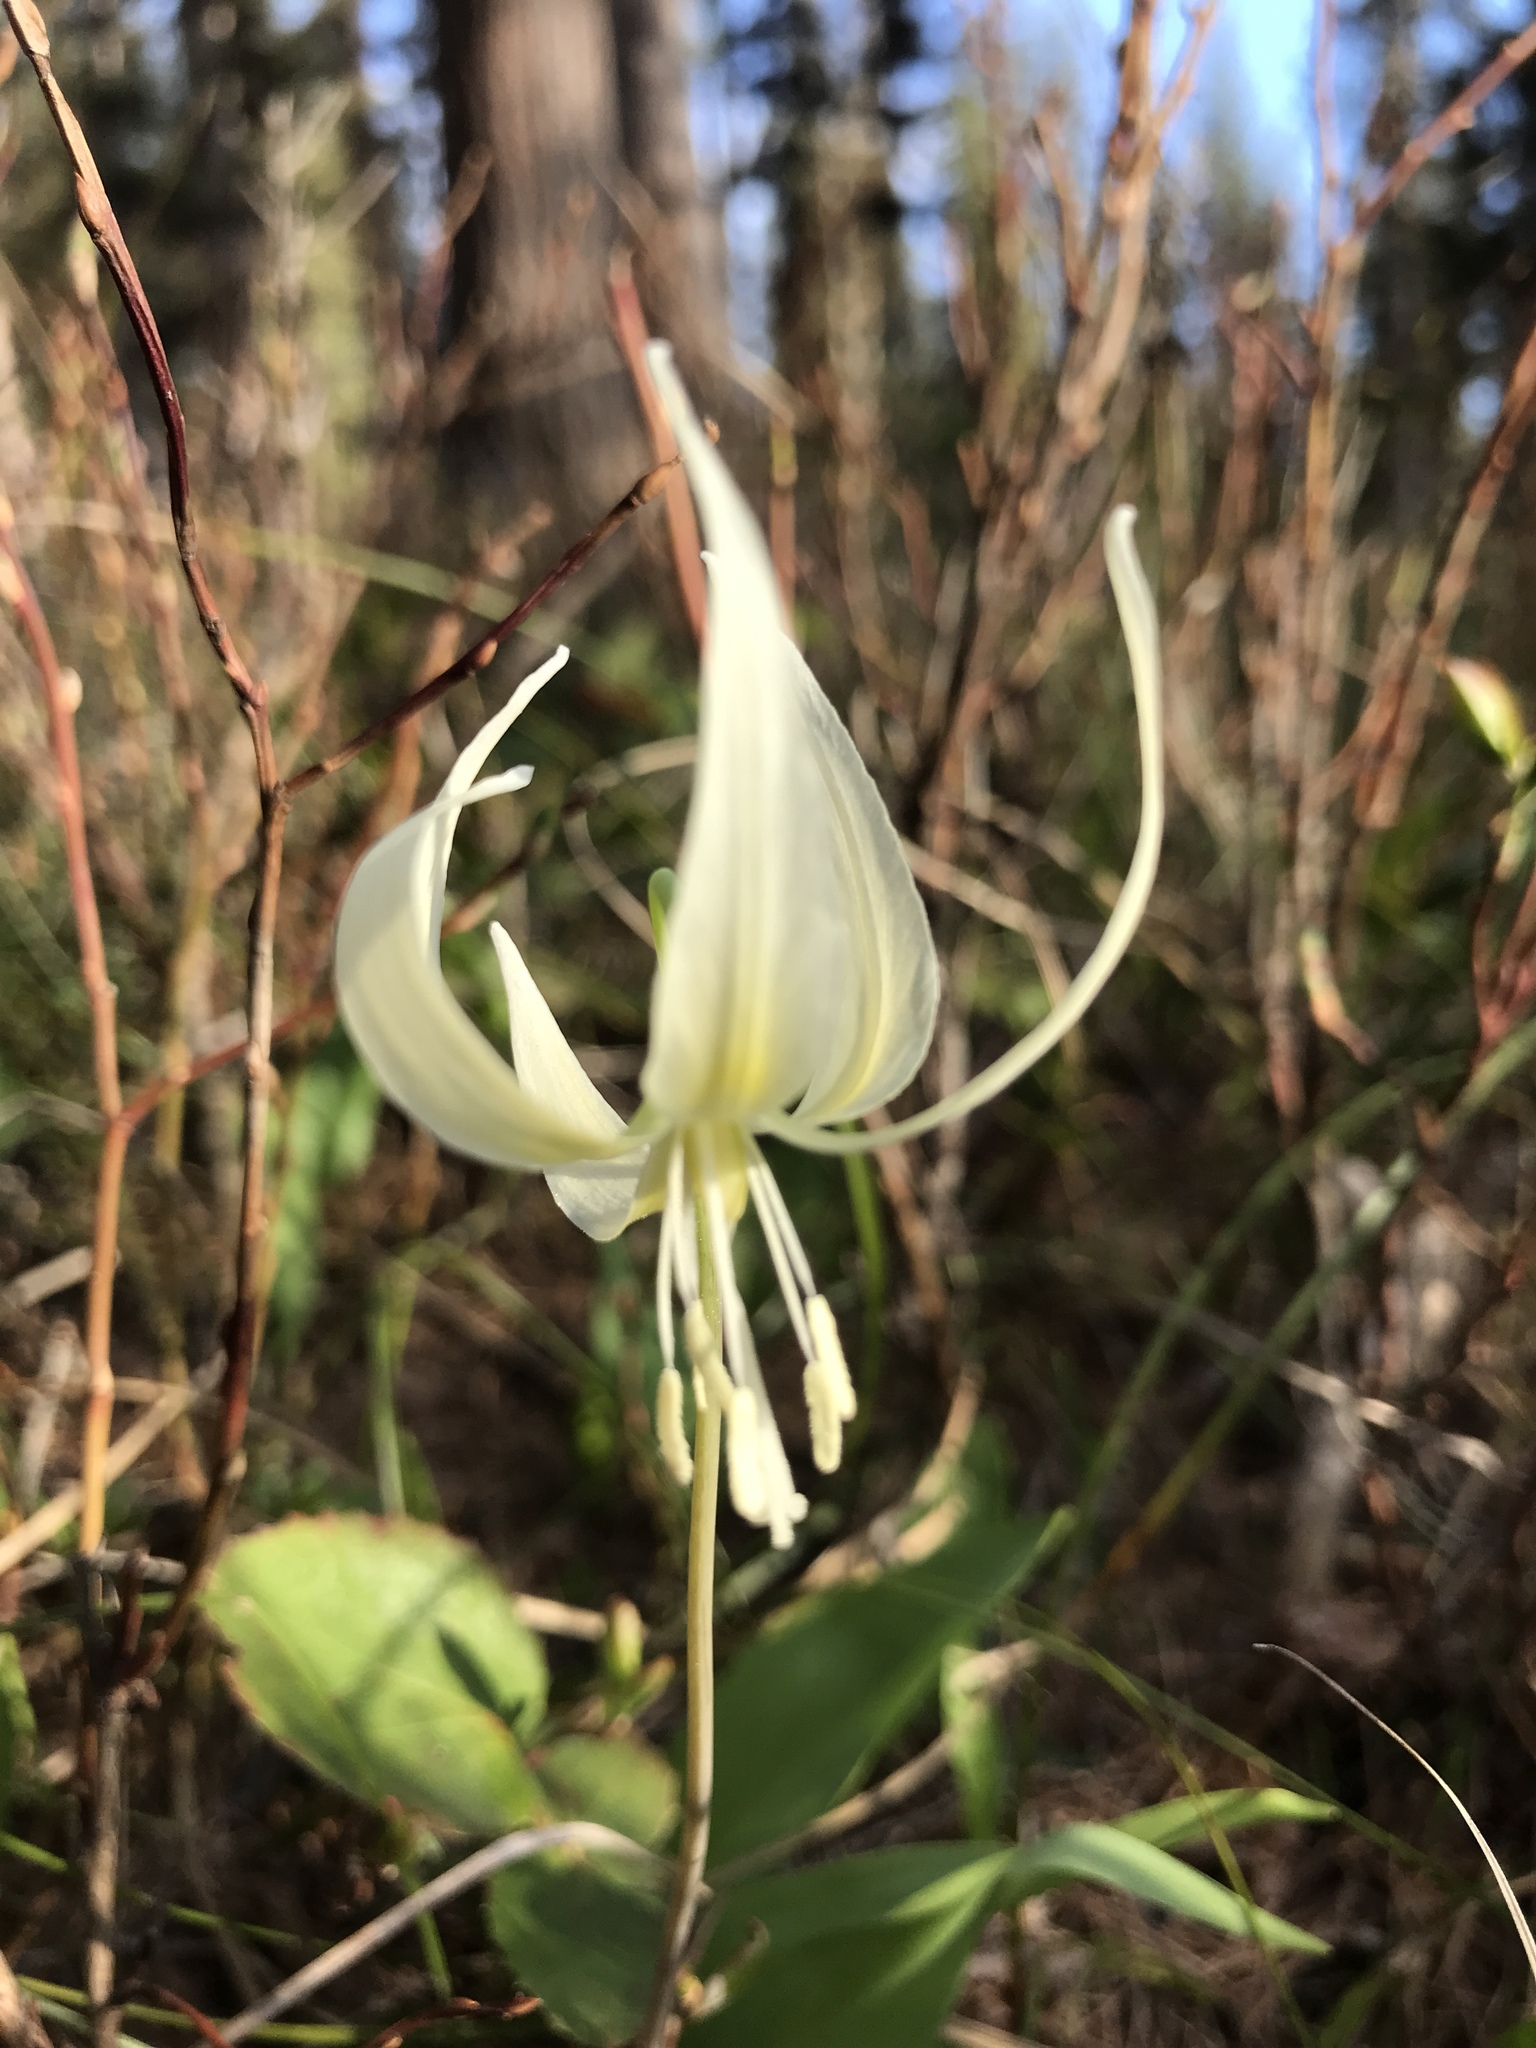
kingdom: Plantae
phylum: Tracheophyta
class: Liliopsida
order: Liliales
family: Liliaceae
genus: Erythronium
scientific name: Erythronium grandiflorum
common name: Avalanche-lily
